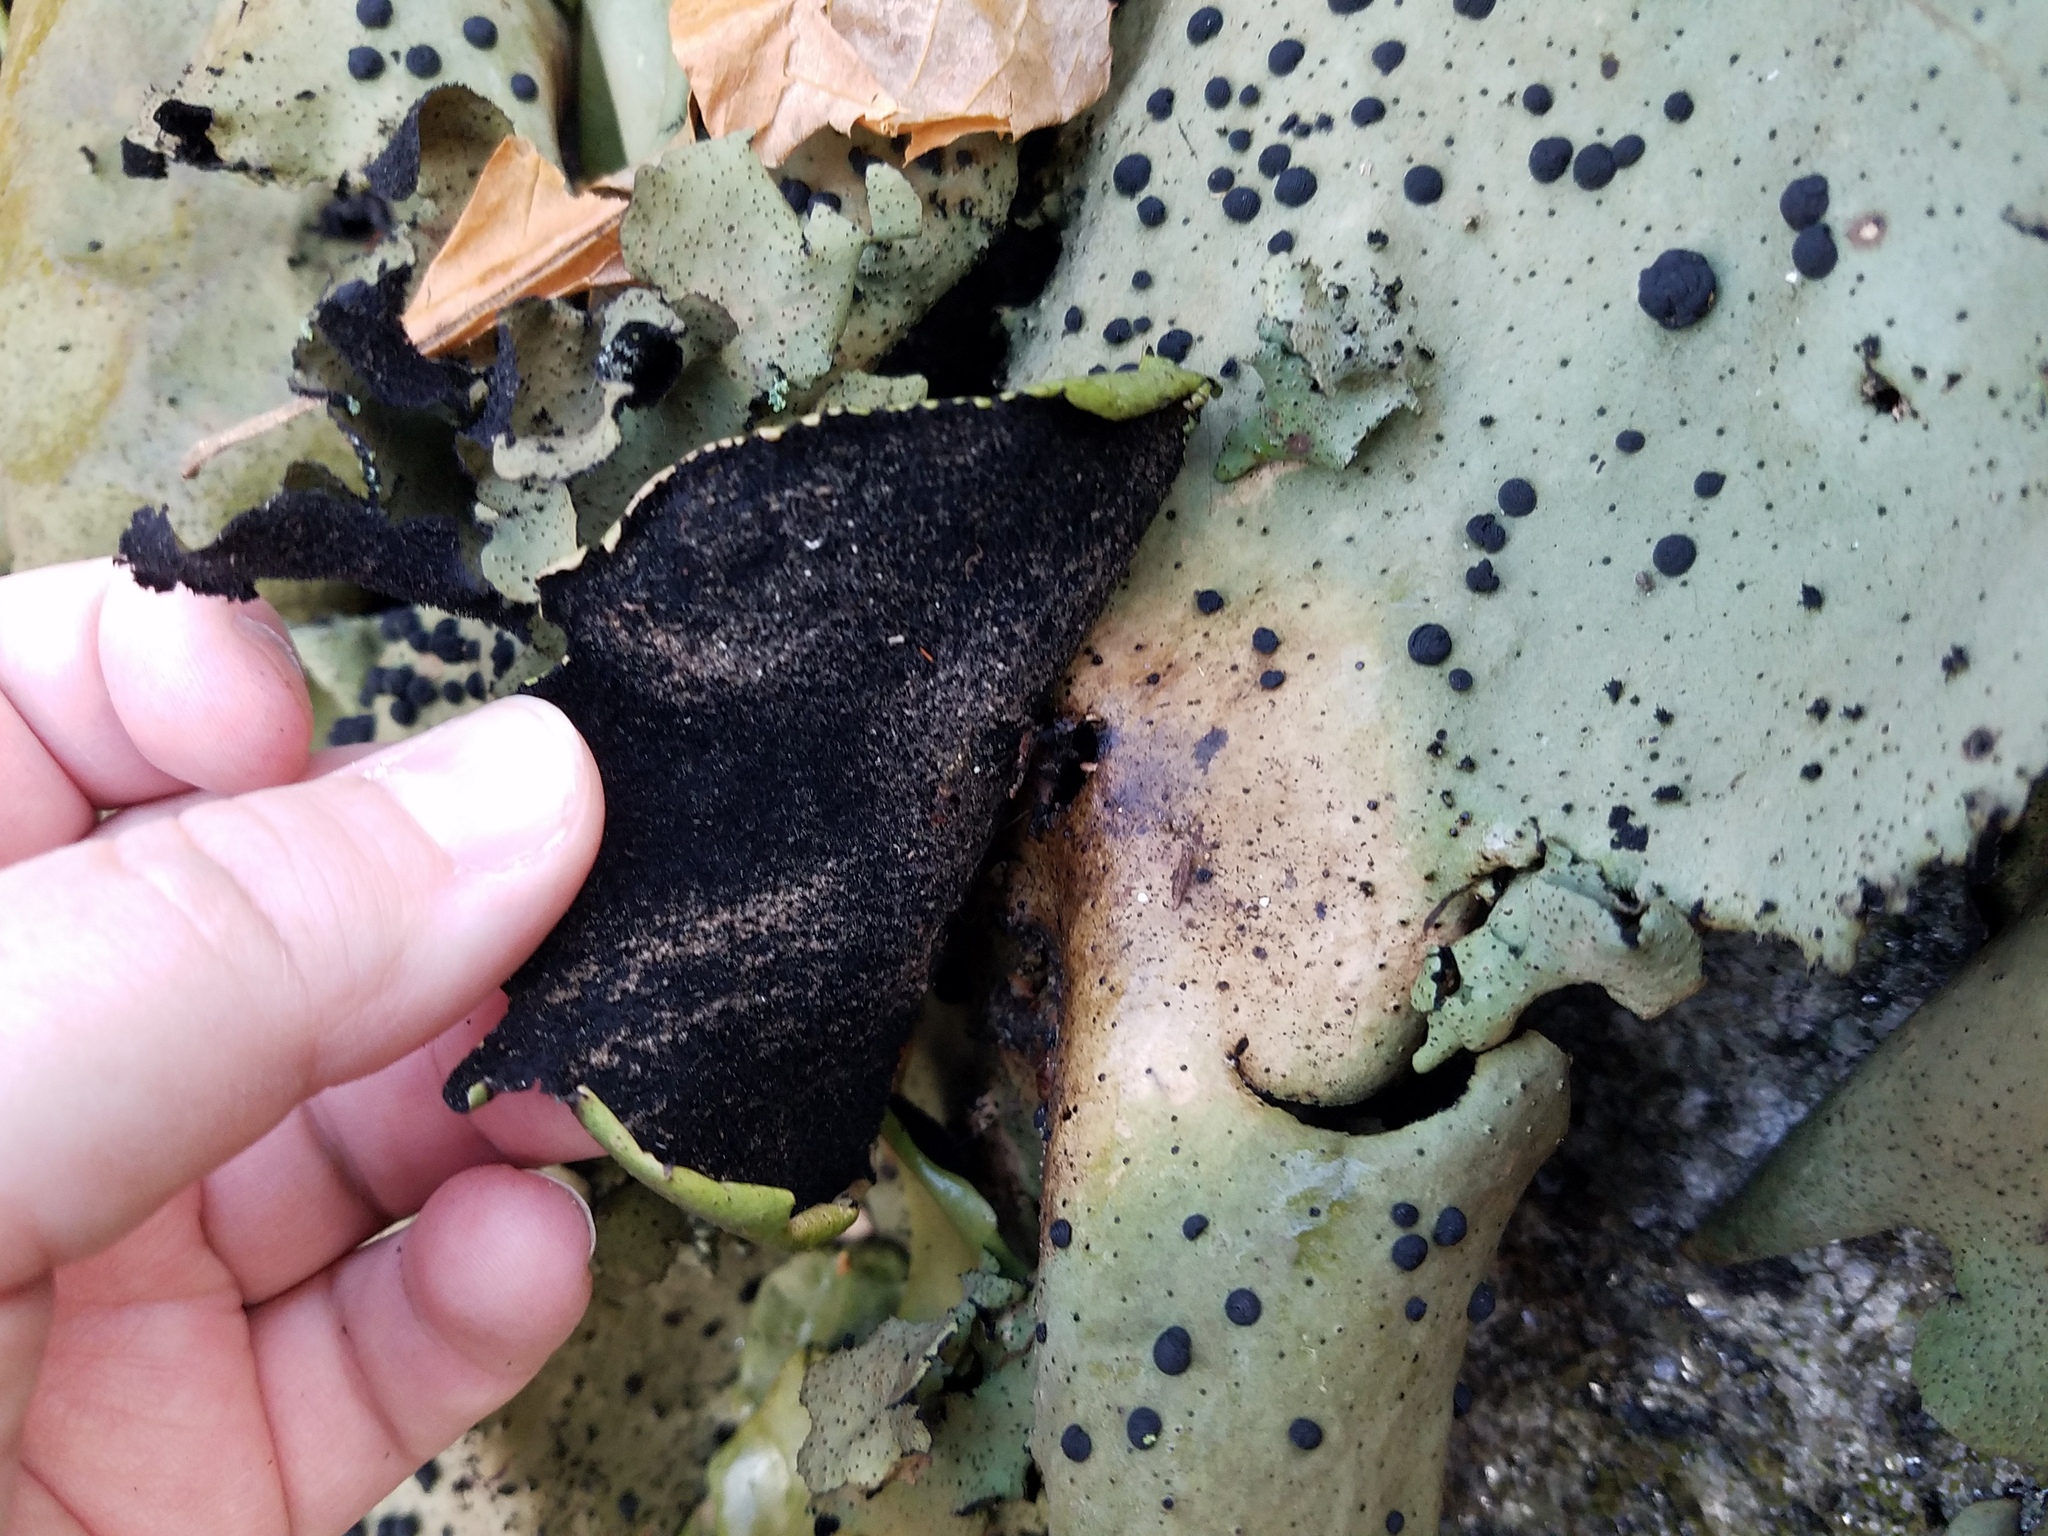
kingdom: Fungi
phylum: Ascomycota
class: Lecanoromycetes
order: Umbilicariales
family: Umbilicariaceae
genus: Umbilicaria
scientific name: Umbilicaria mammulata
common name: Smooth rock tripe
